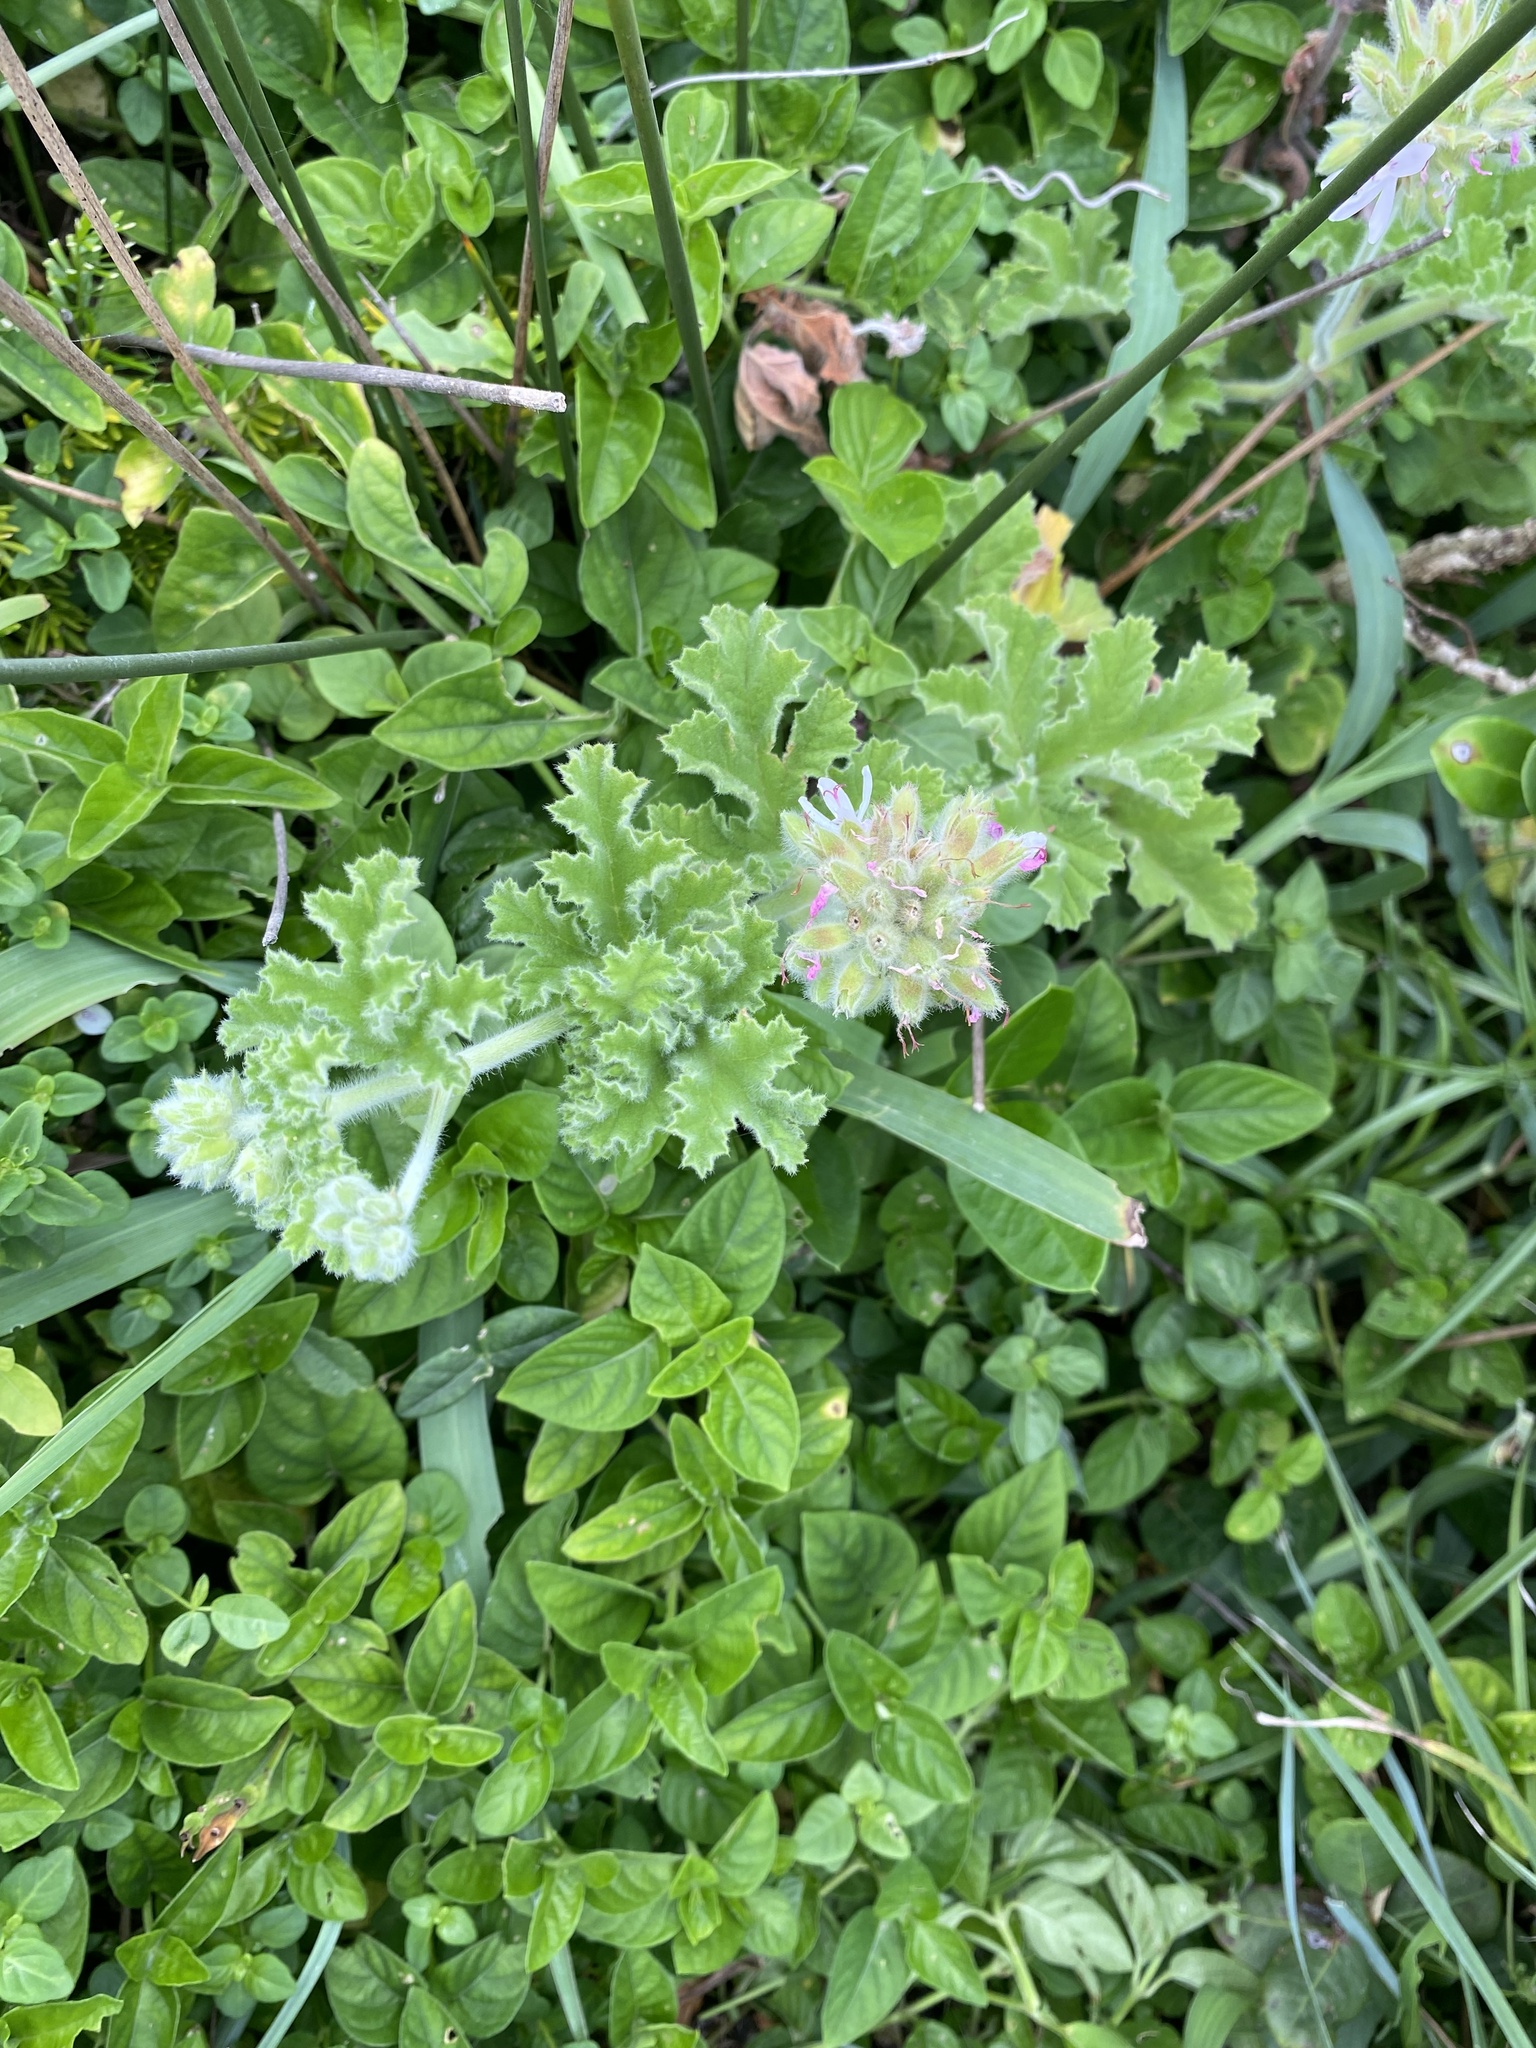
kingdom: Plantae
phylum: Tracheophyta
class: Magnoliopsida
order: Geraniales
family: Geraniaceae
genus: Pelargonium
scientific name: Pelargonium capitatum
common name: Rose scented geranium
